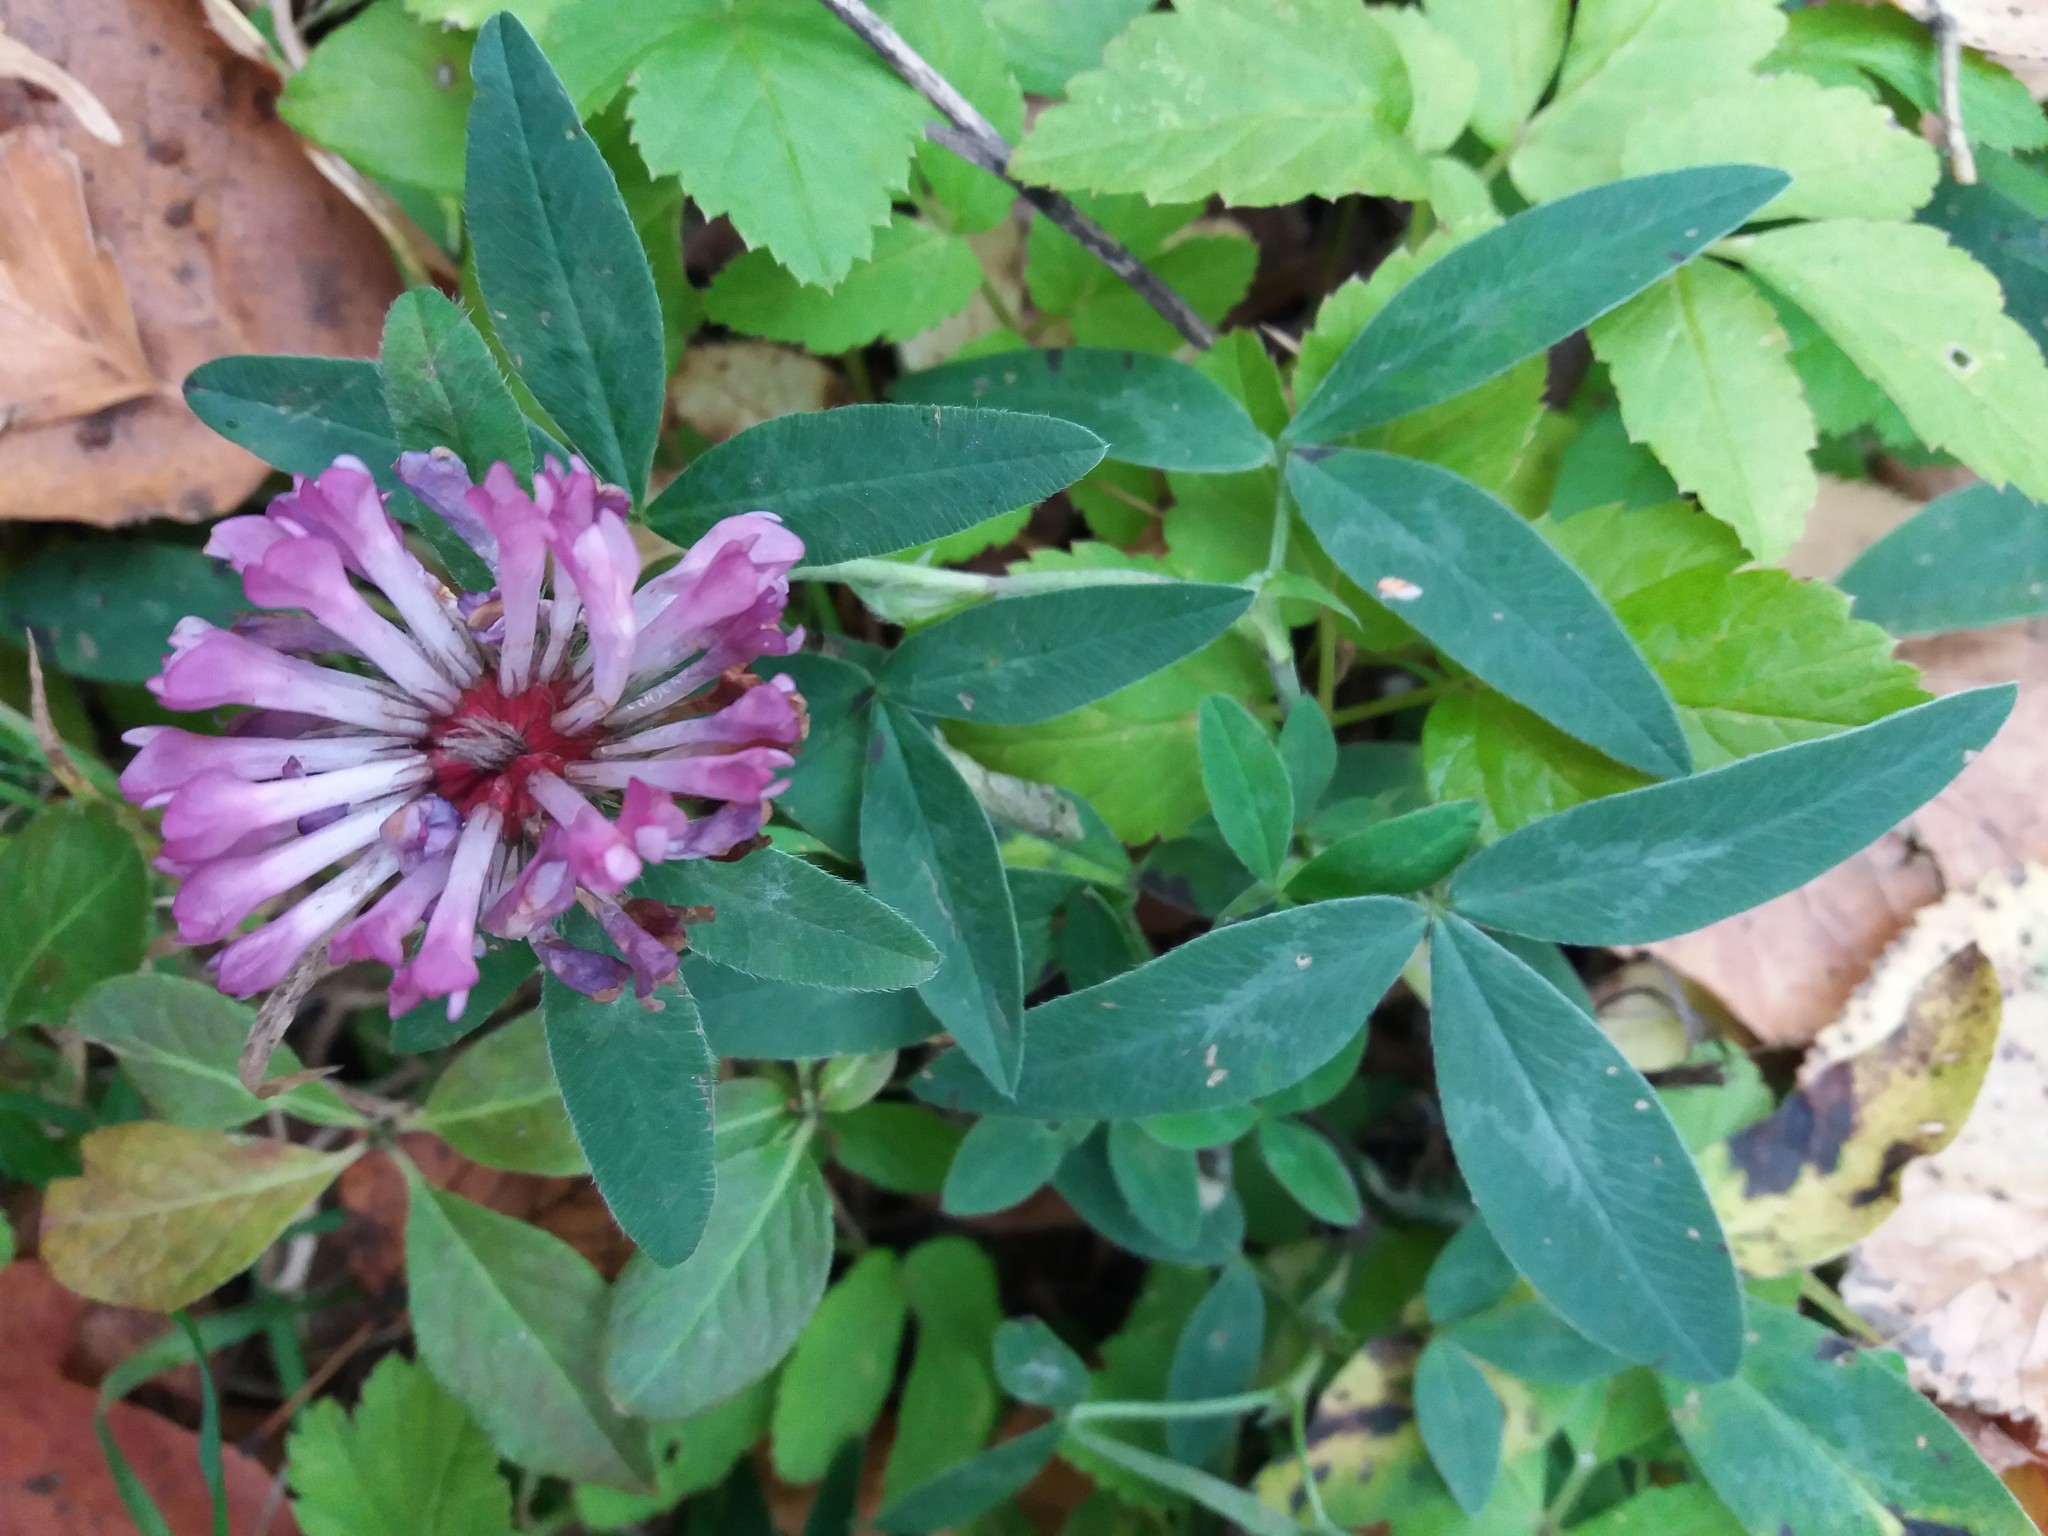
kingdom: Plantae
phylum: Tracheophyta
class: Magnoliopsida
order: Fabales
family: Fabaceae
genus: Trifolium
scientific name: Trifolium pratense
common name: Red clover
